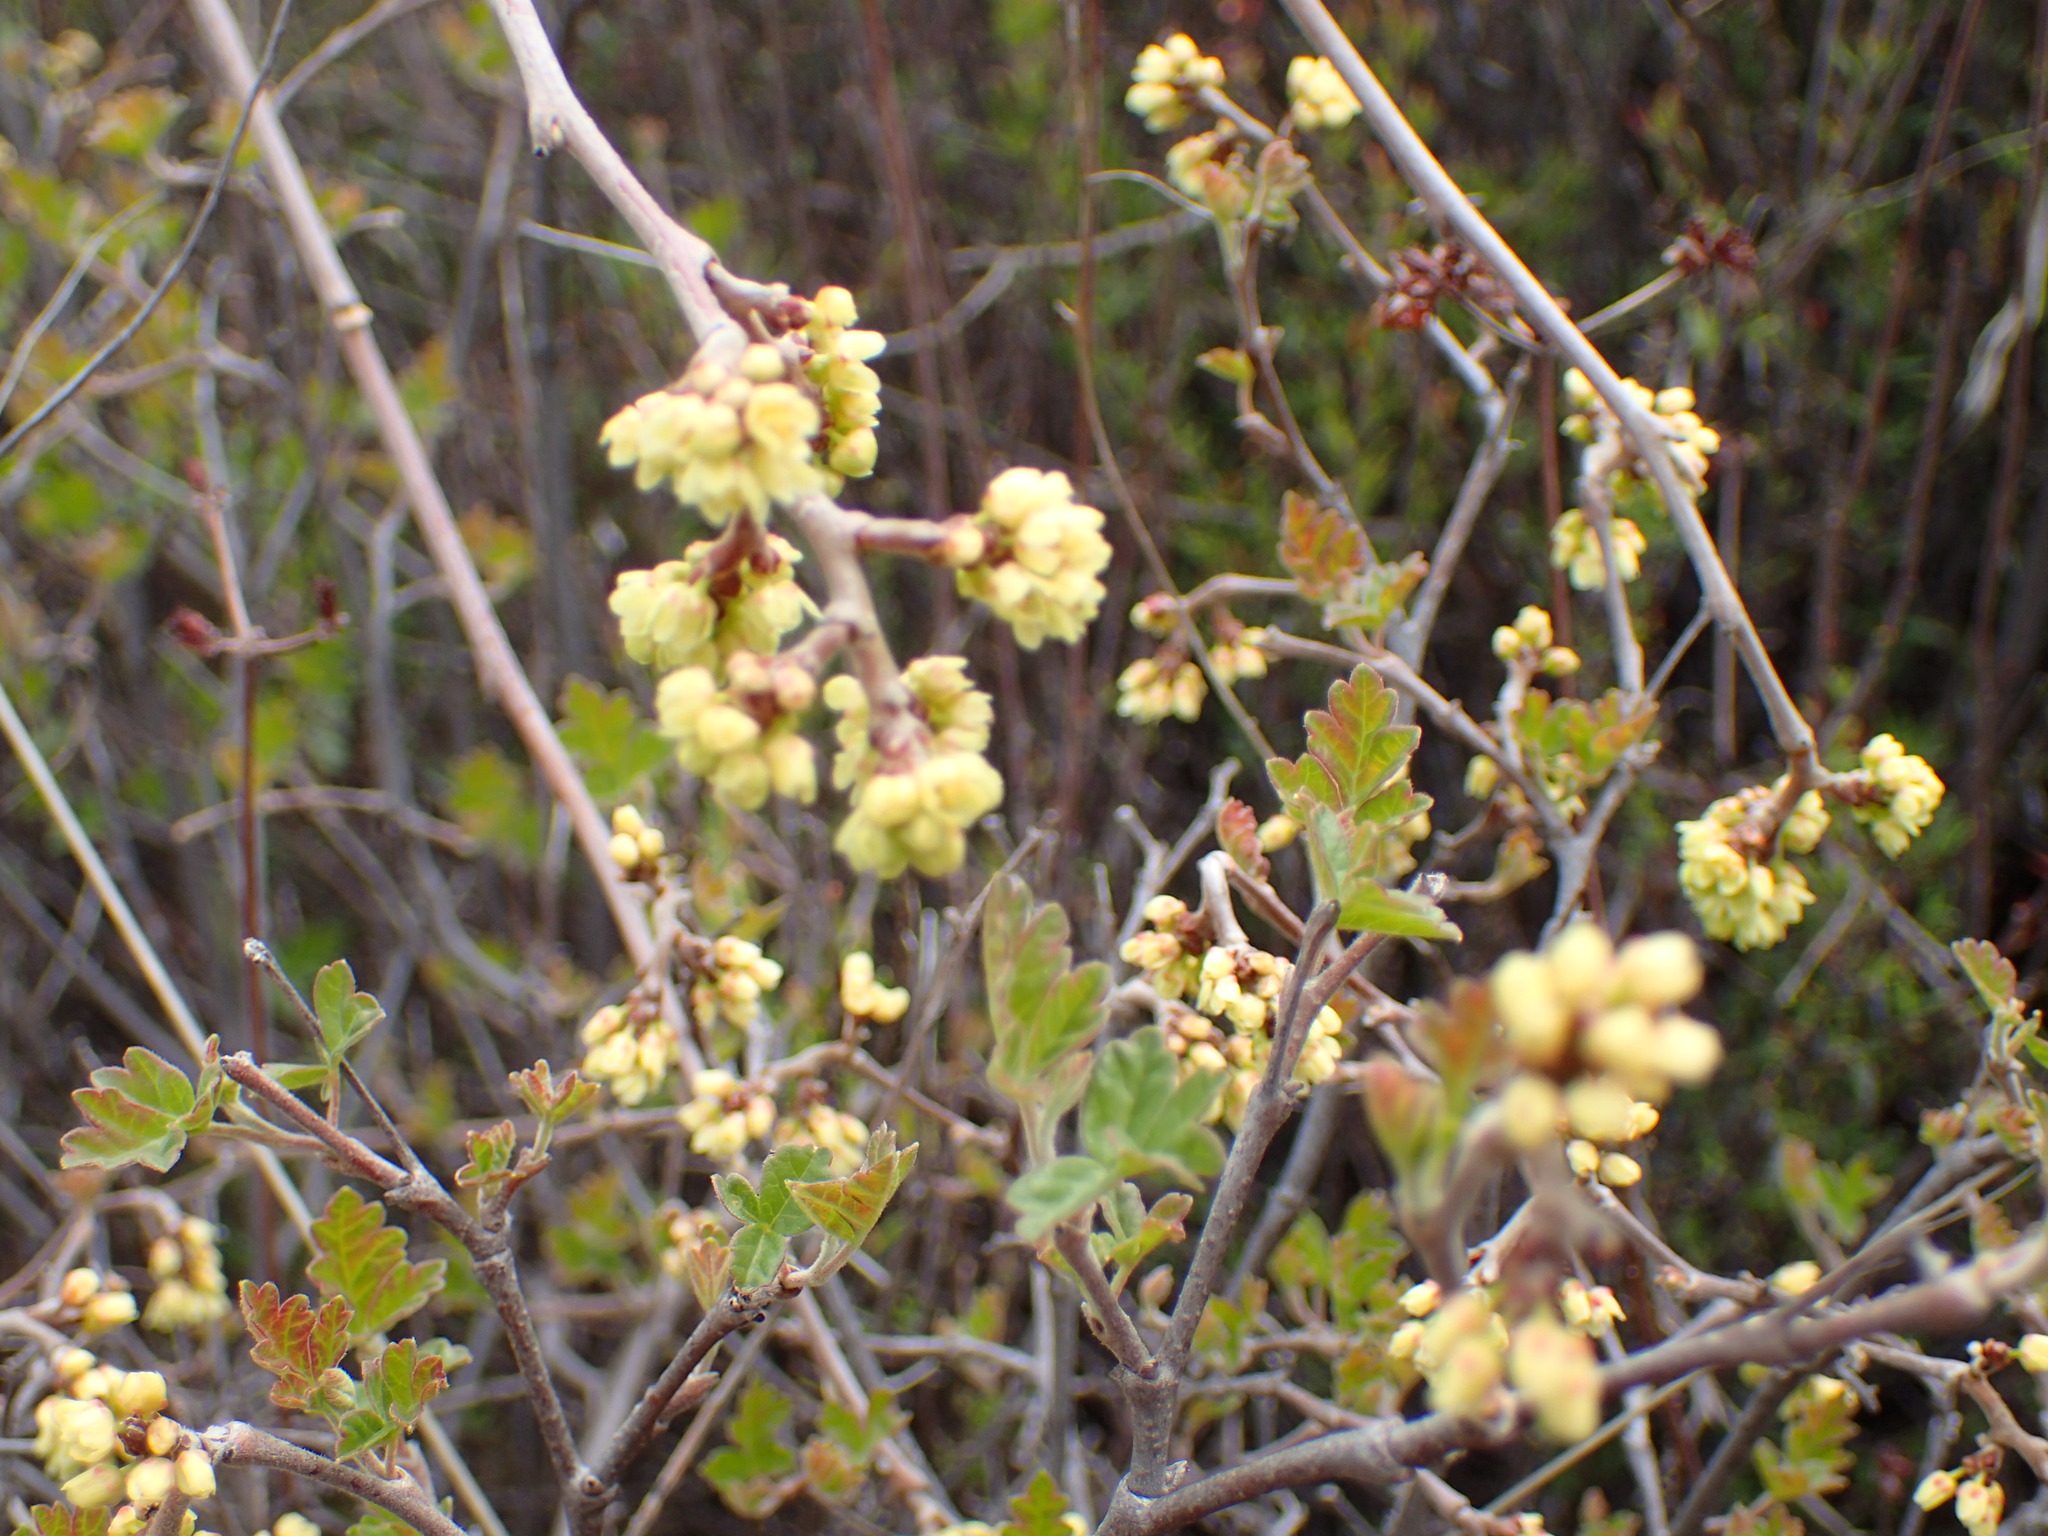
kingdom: Plantae
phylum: Tracheophyta
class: Magnoliopsida
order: Sapindales
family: Anacardiaceae
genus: Rhus
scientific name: Rhus aromatica
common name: Aromatic sumac
